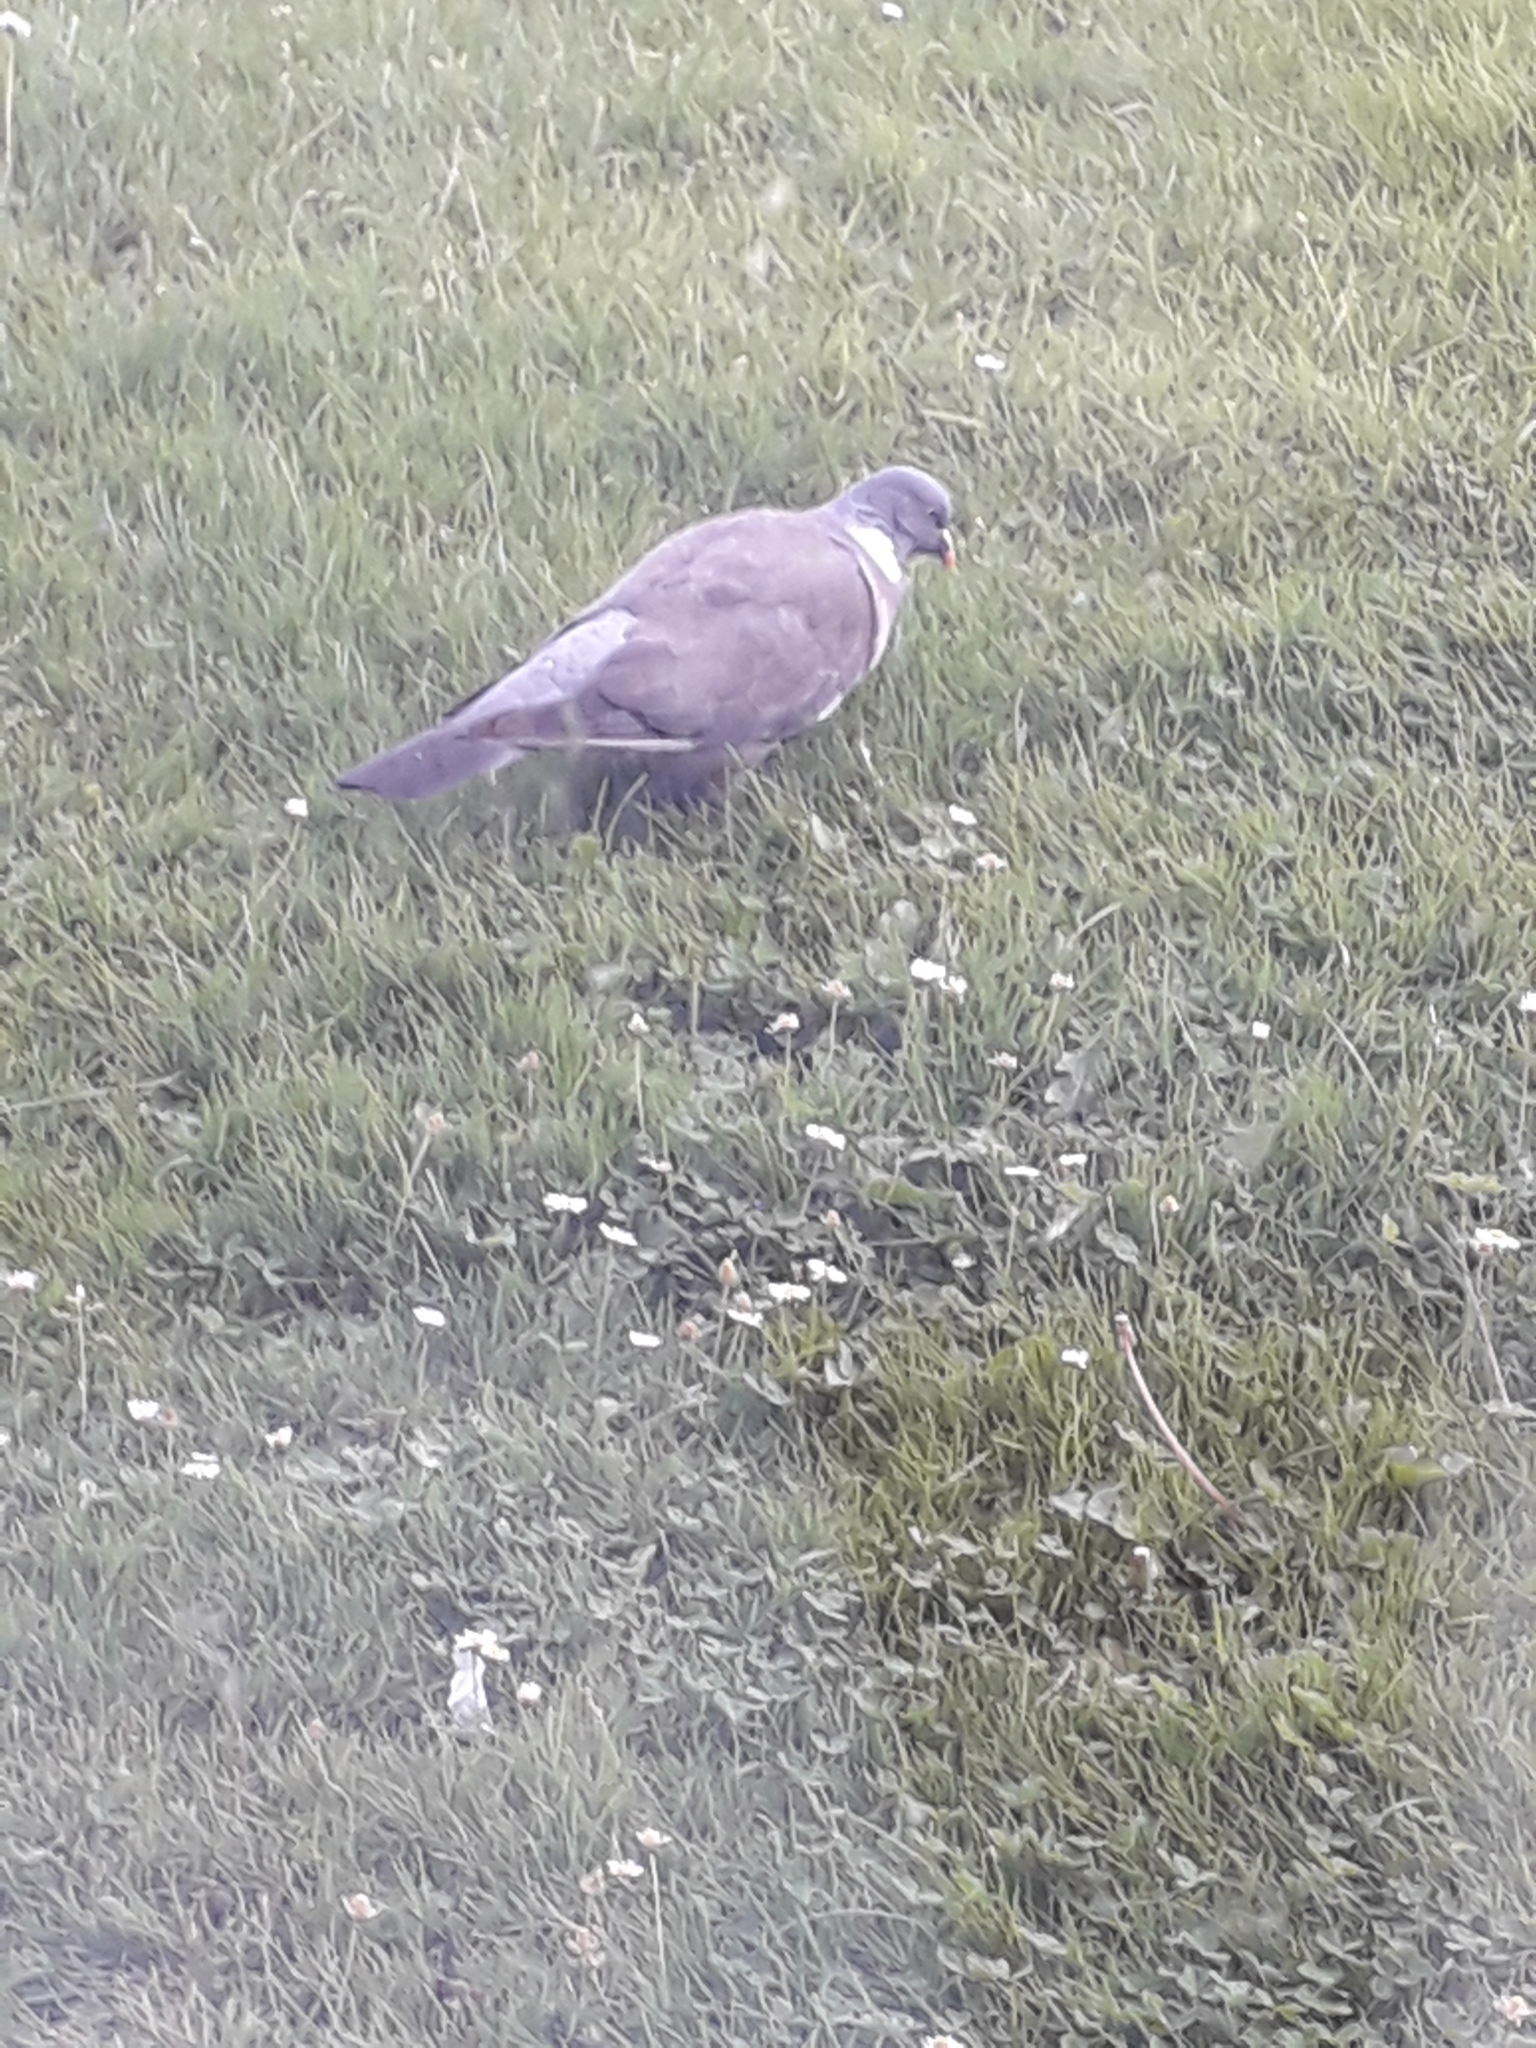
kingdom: Animalia
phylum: Chordata
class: Aves
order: Columbiformes
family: Columbidae
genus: Columba
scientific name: Columba palumbus
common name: Common wood pigeon
